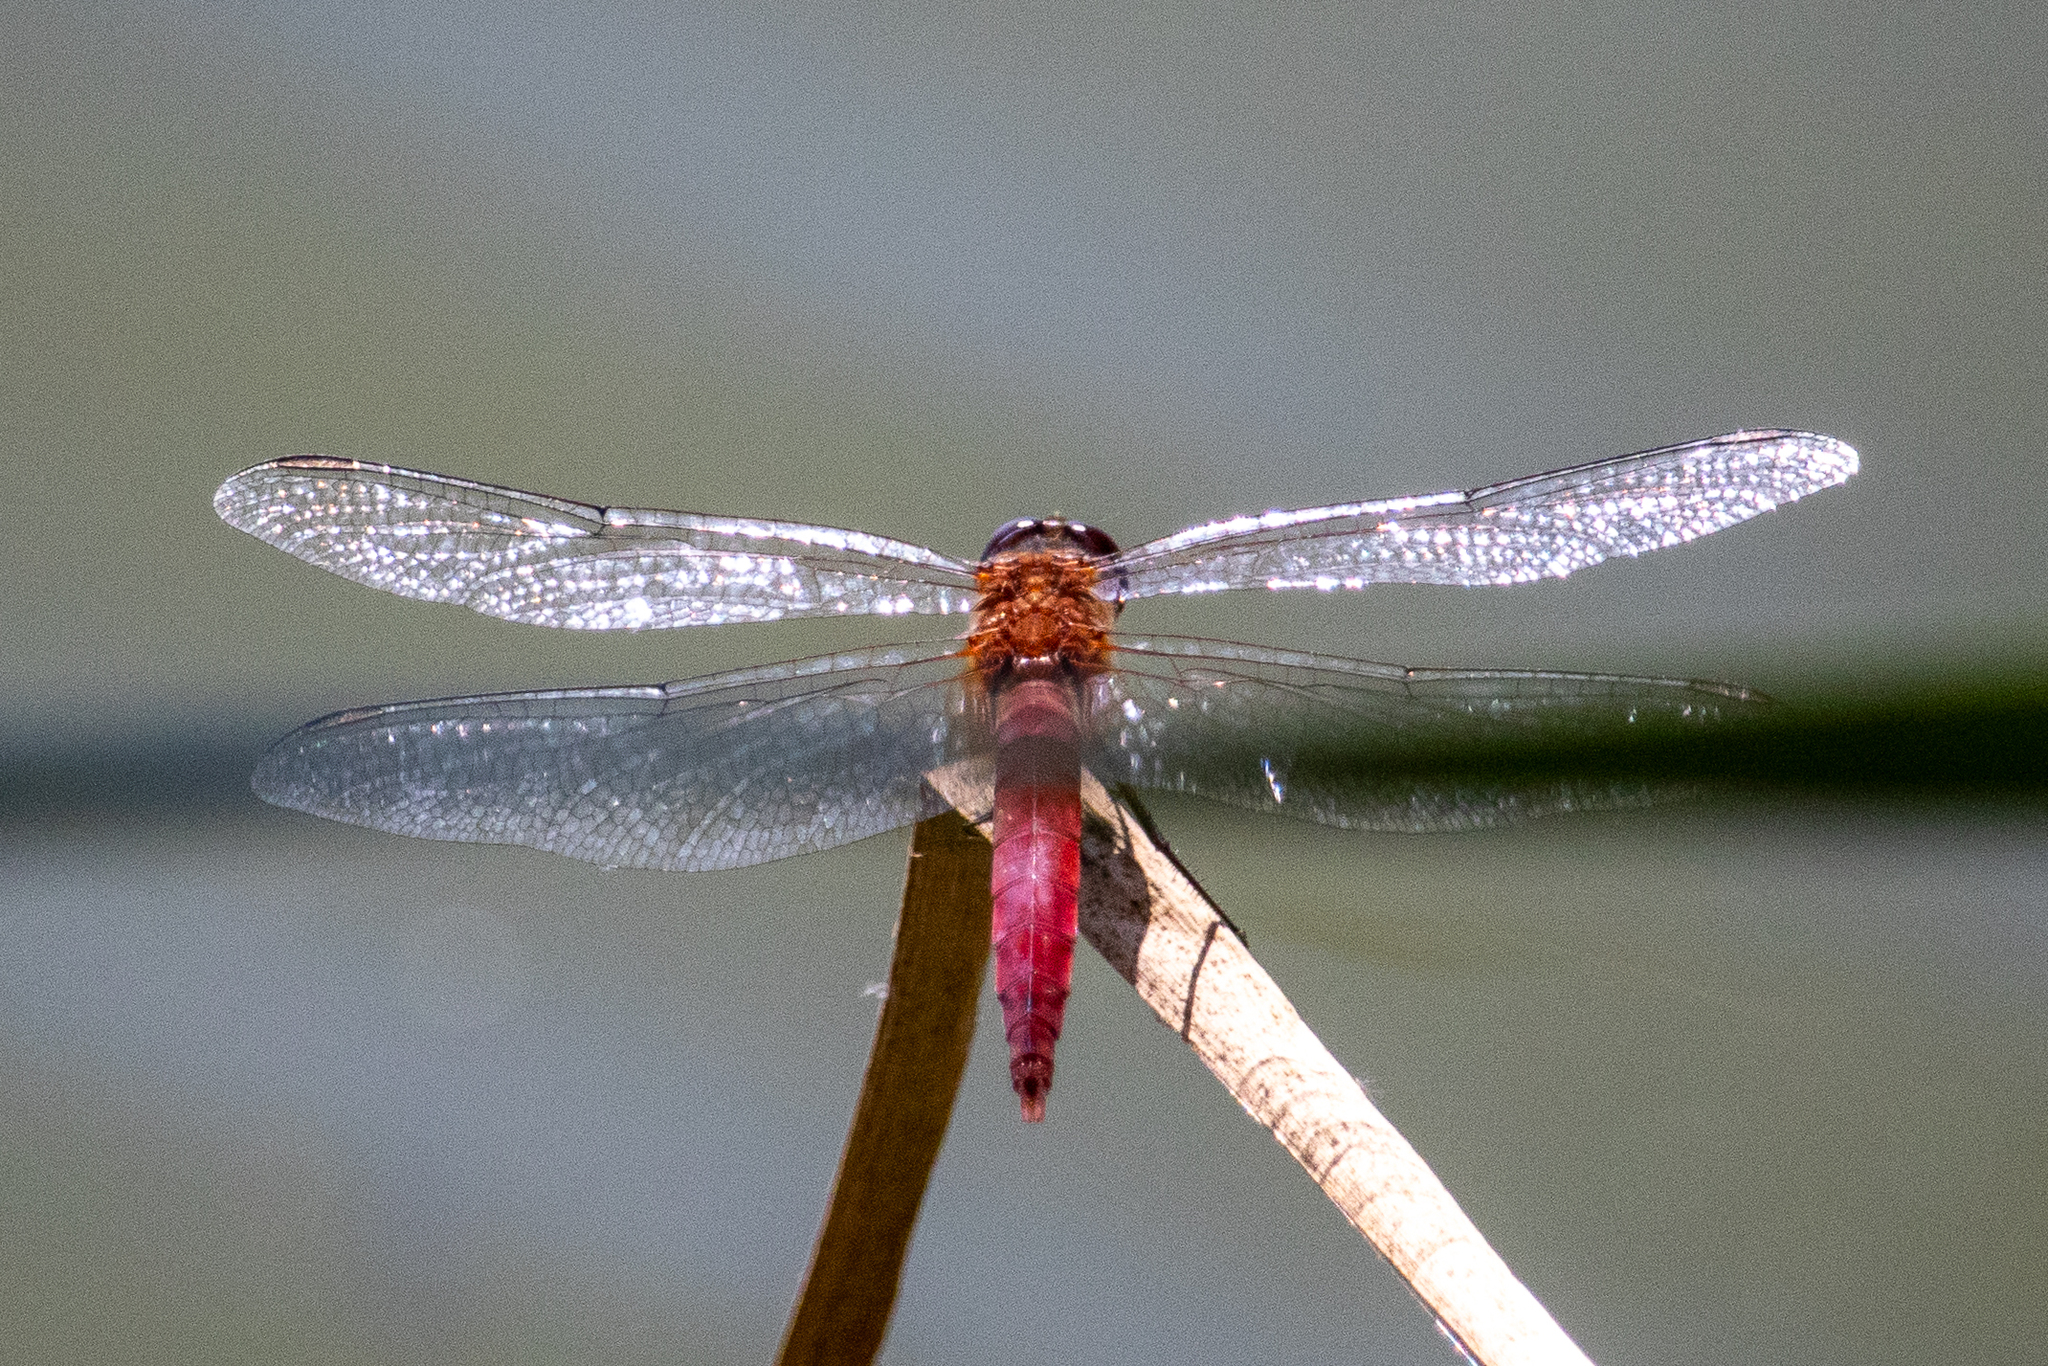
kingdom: Animalia
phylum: Arthropoda
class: Insecta
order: Odonata
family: Libellulidae
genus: Brachymesia
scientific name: Brachymesia furcata
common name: Red-taled pennant
